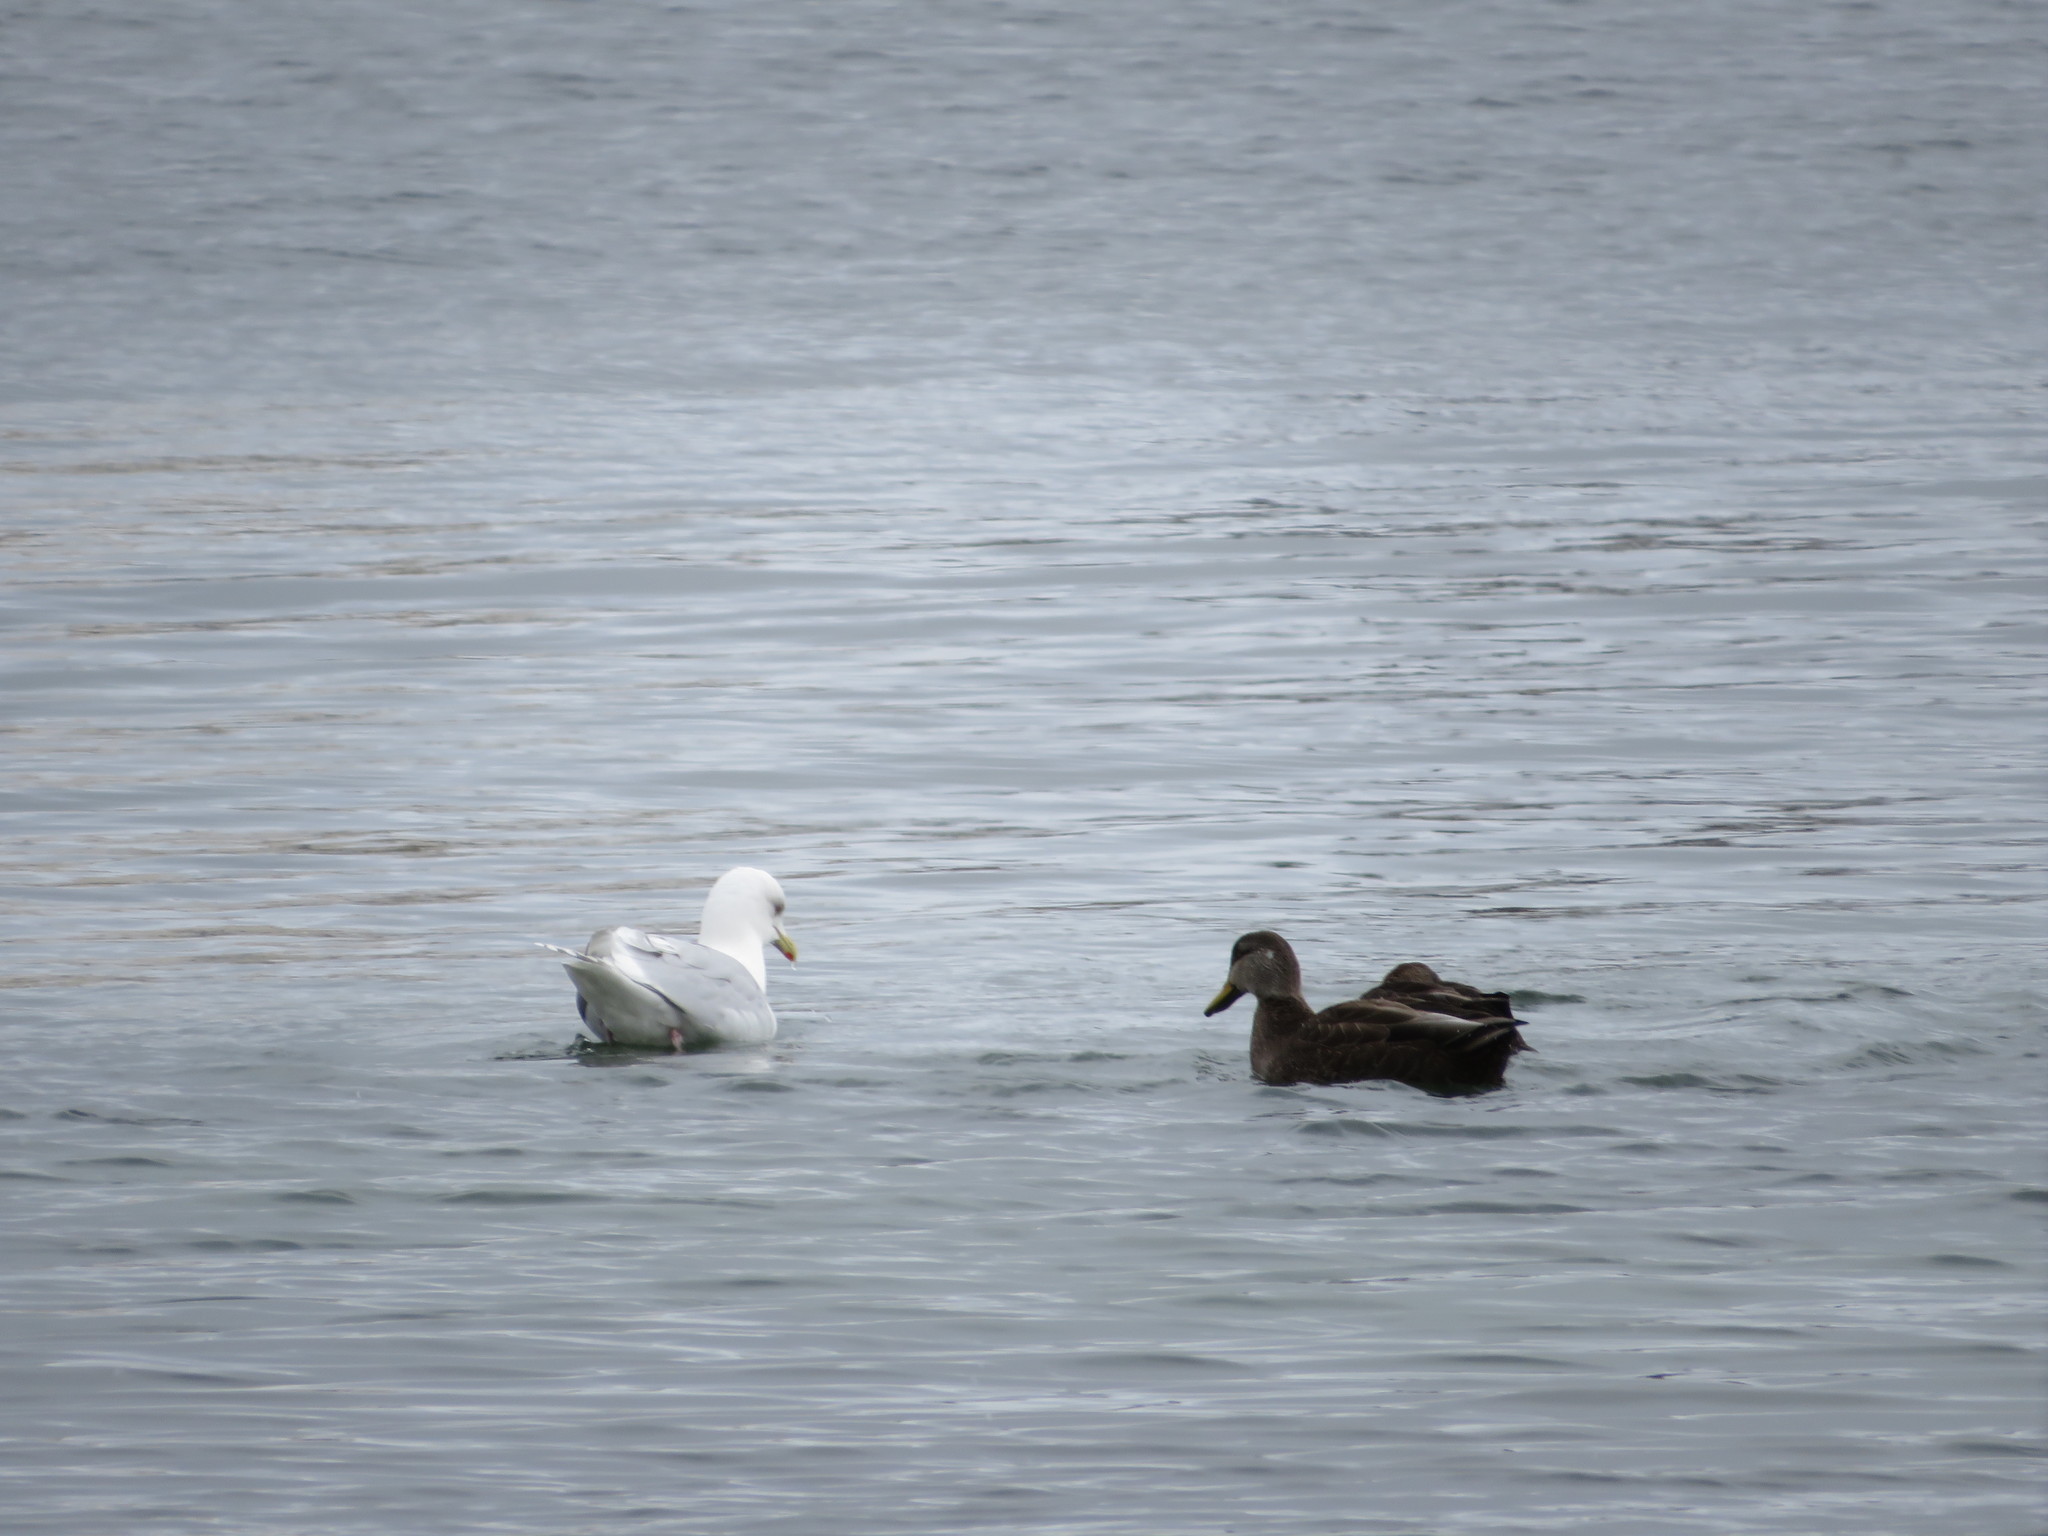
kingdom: Animalia
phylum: Chordata
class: Aves
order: Anseriformes
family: Anatidae
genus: Anas
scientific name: Anas rubripes
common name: American black duck
